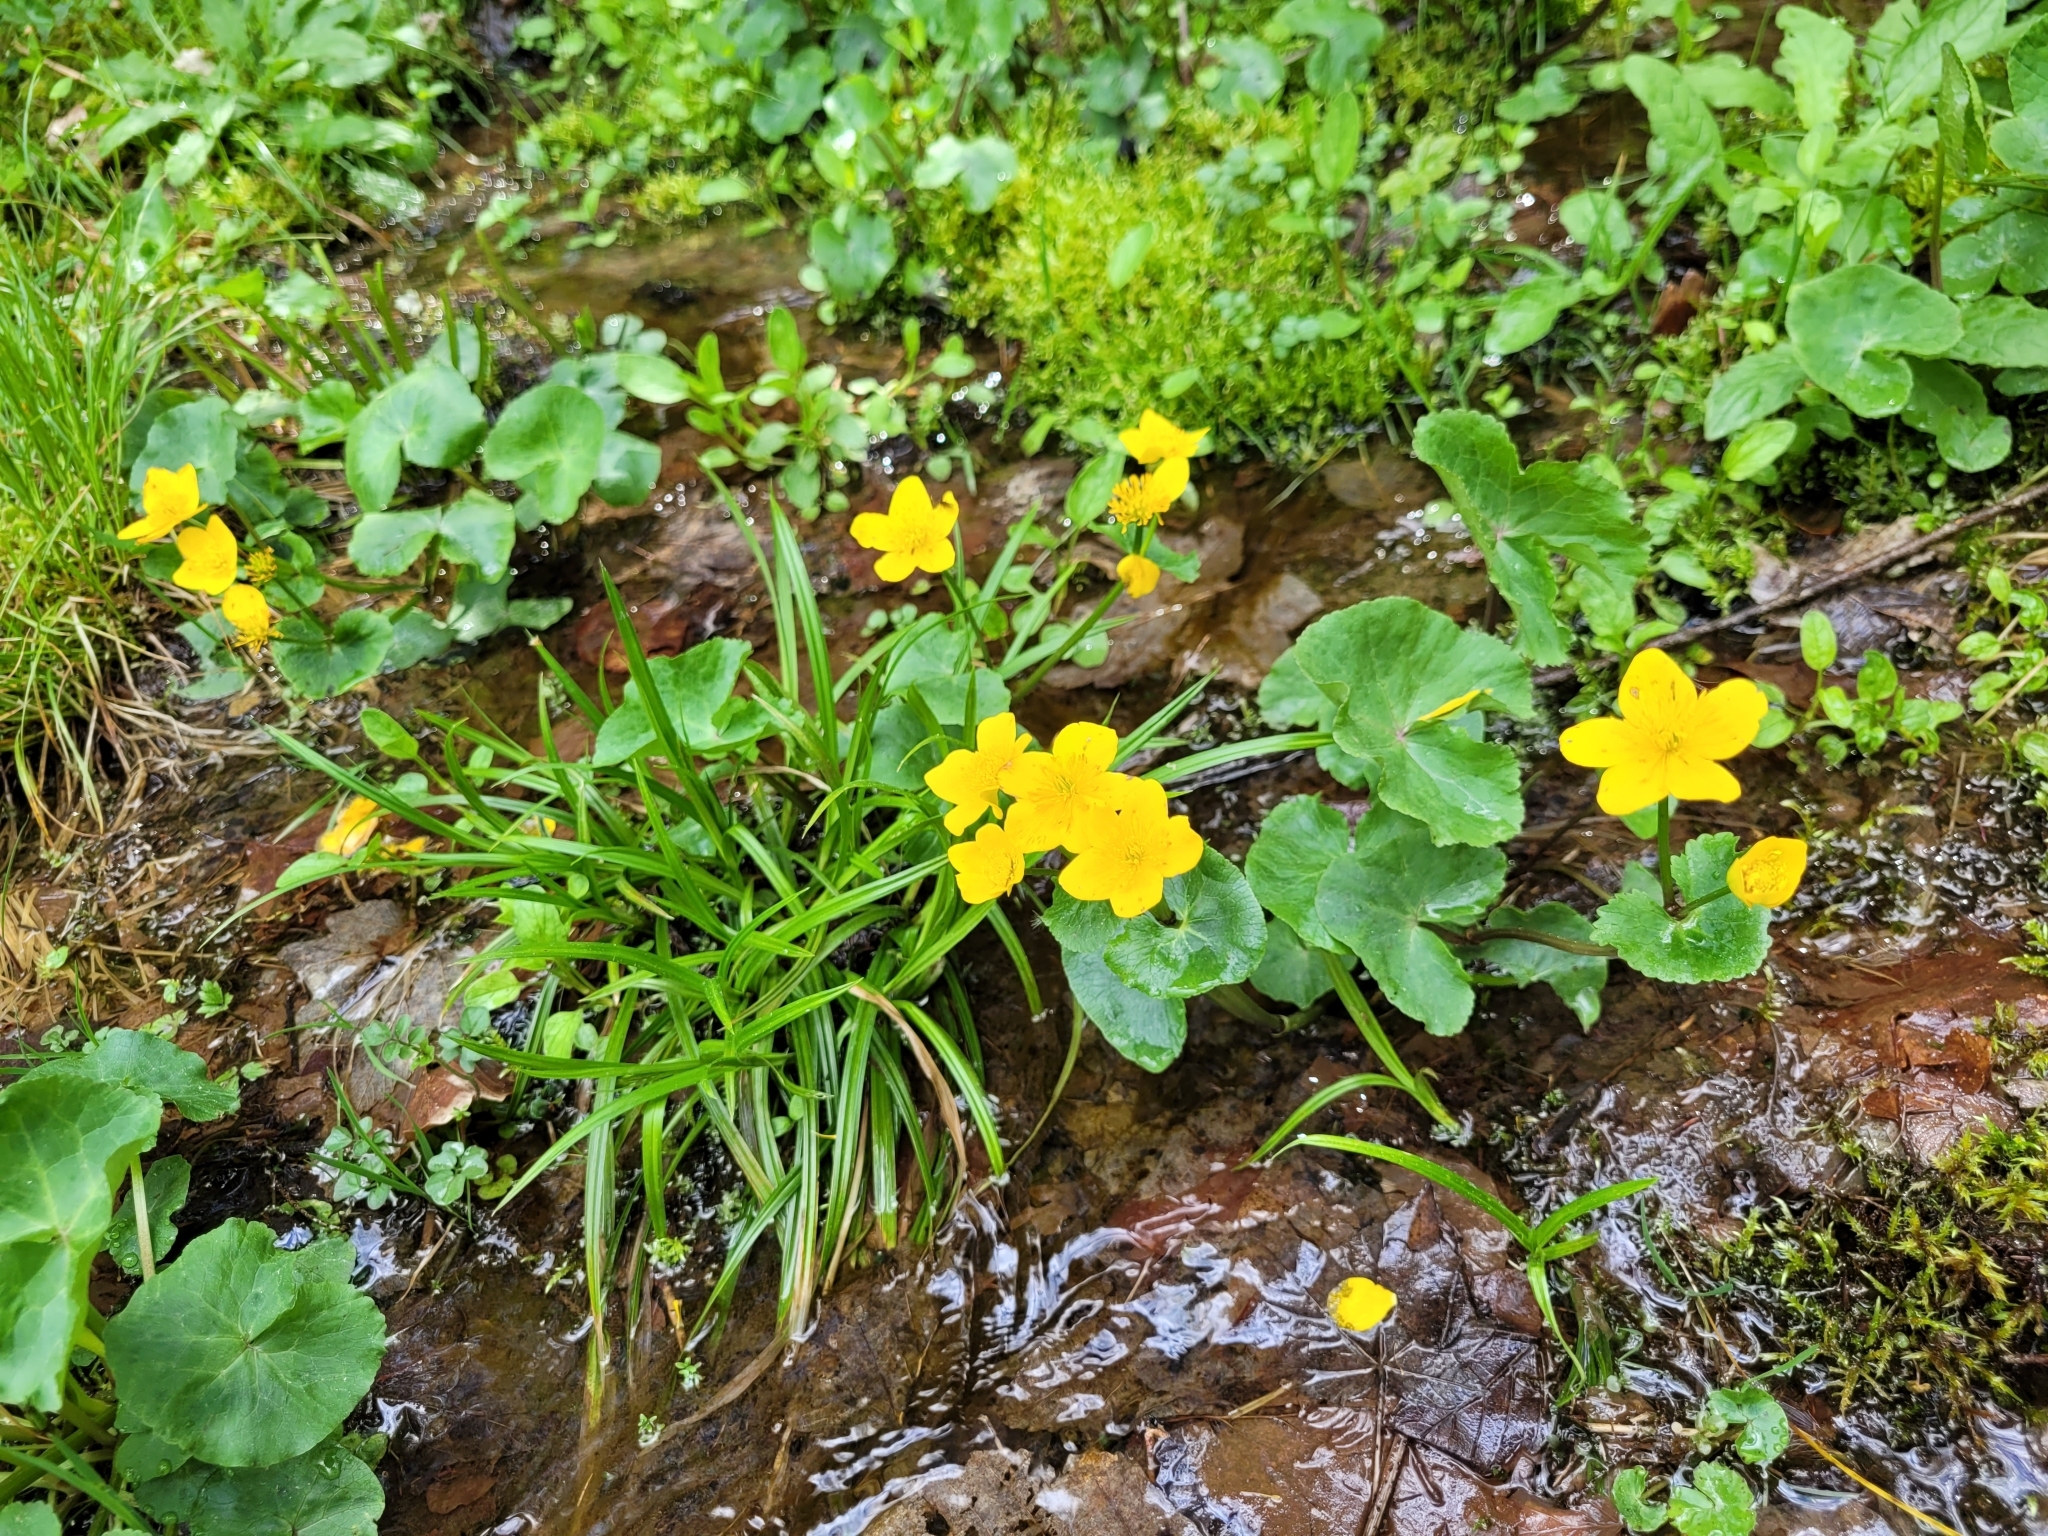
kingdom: Plantae
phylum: Tracheophyta
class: Magnoliopsida
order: Ranunculales
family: Ranunculaceae
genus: Caltha
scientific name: Caltha palustris
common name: Marsh marigold
